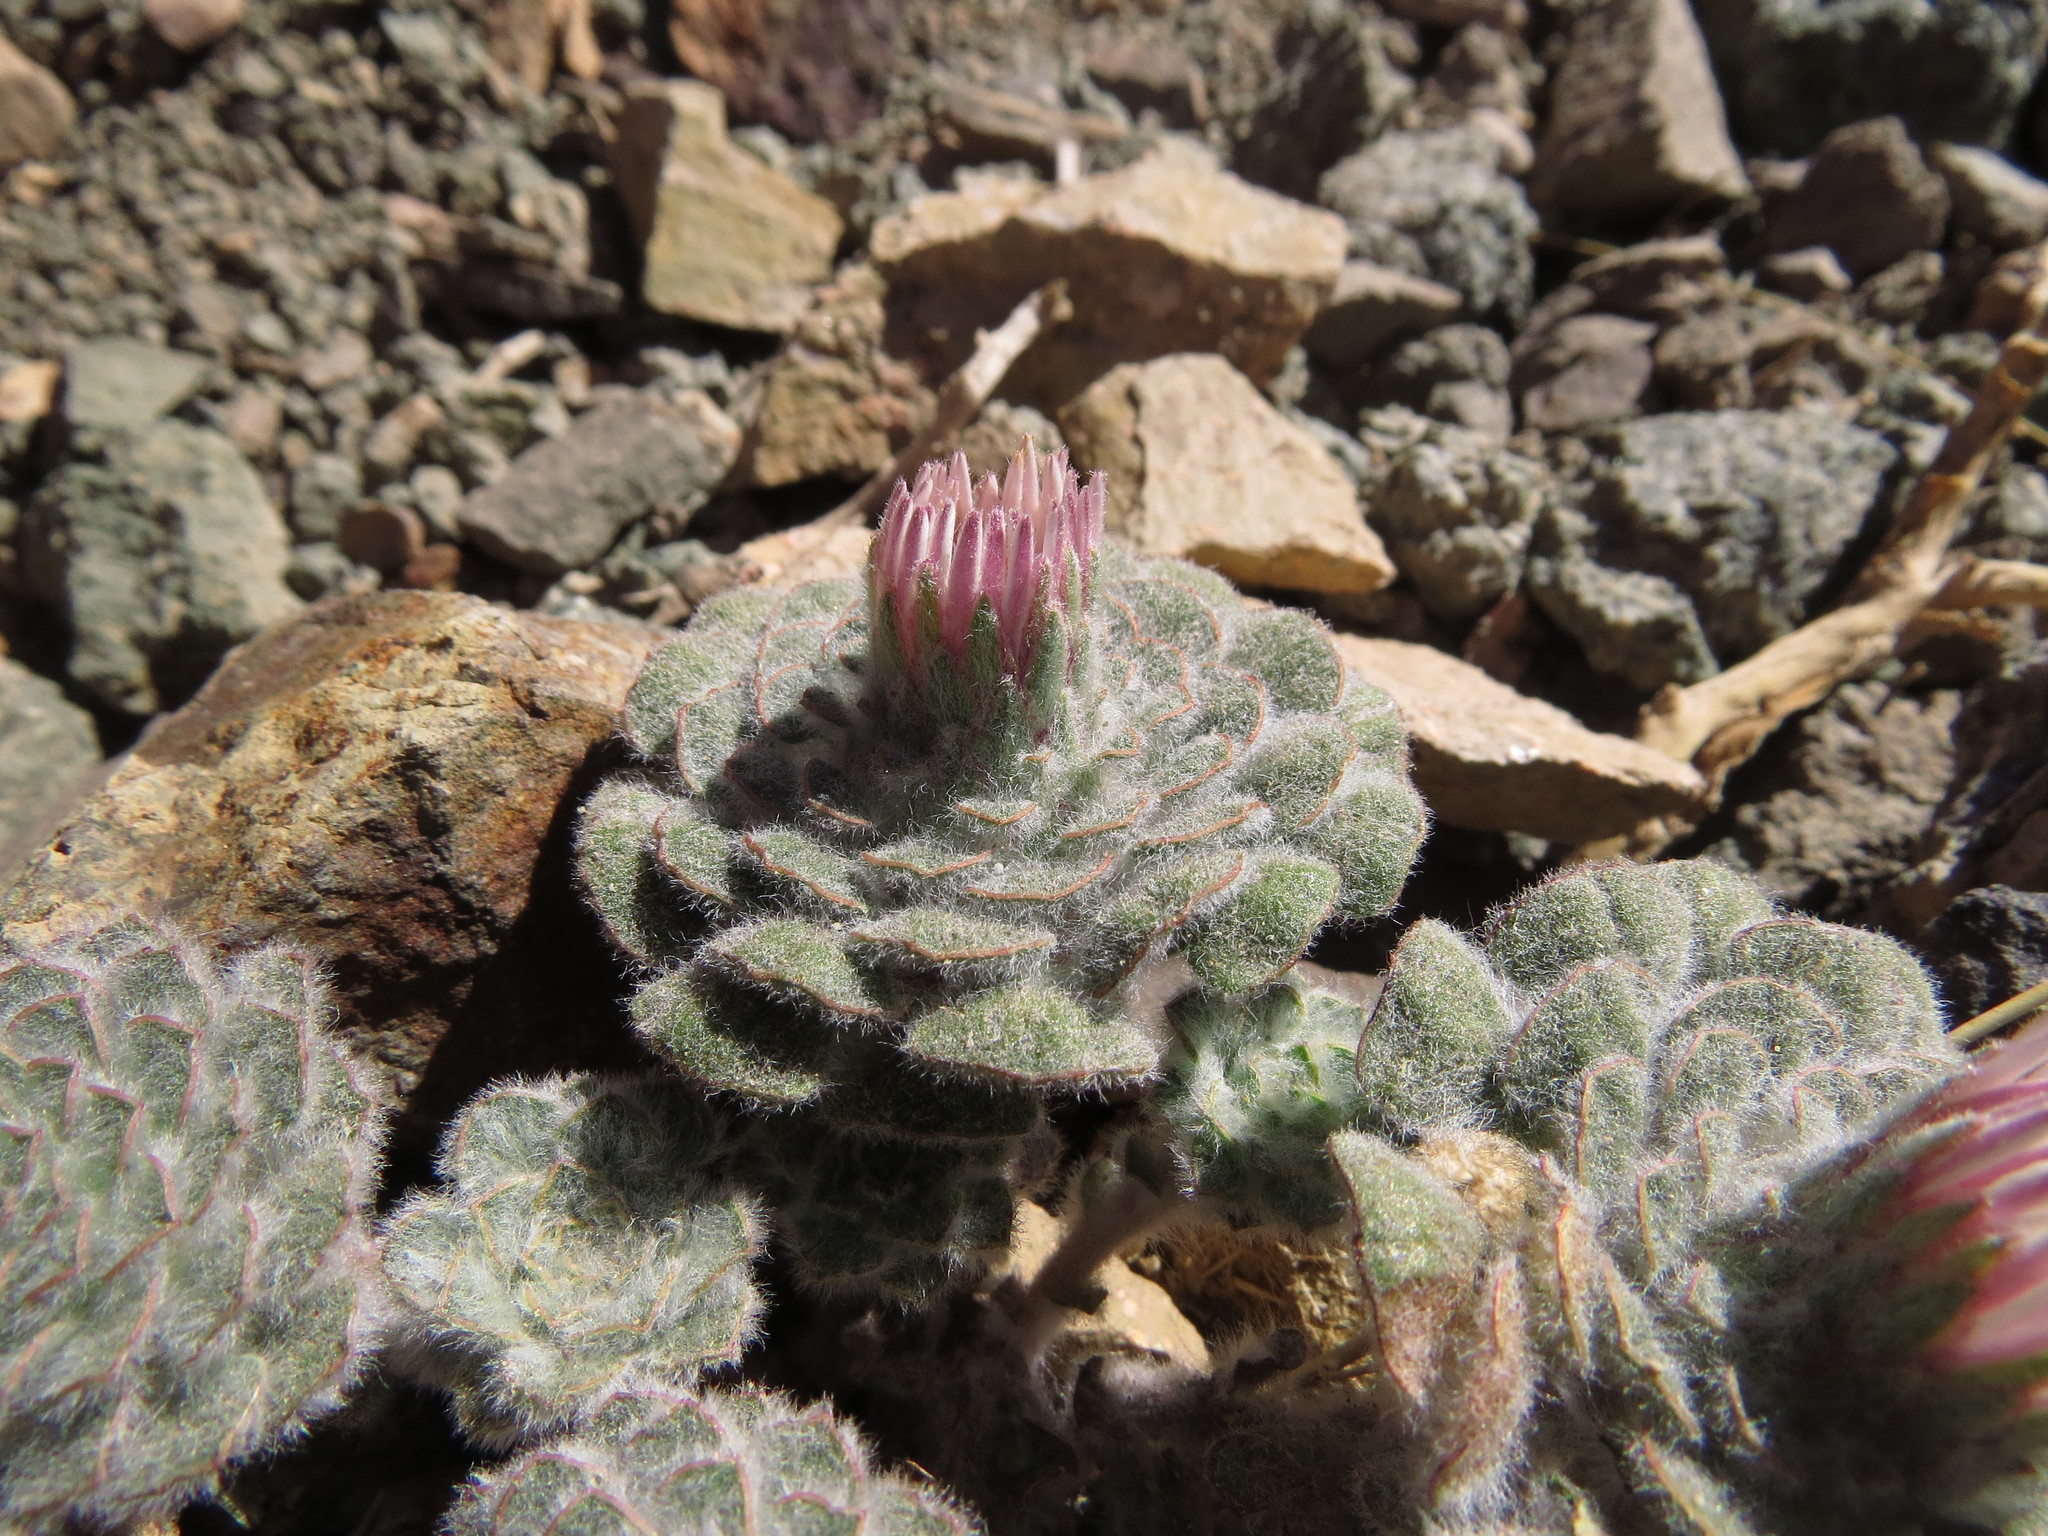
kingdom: Plantae
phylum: Tracheophyta
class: Magnoliopsida
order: Asterales
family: Asteraceae
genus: Chaetanthera
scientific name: Chaetanthera lanata
